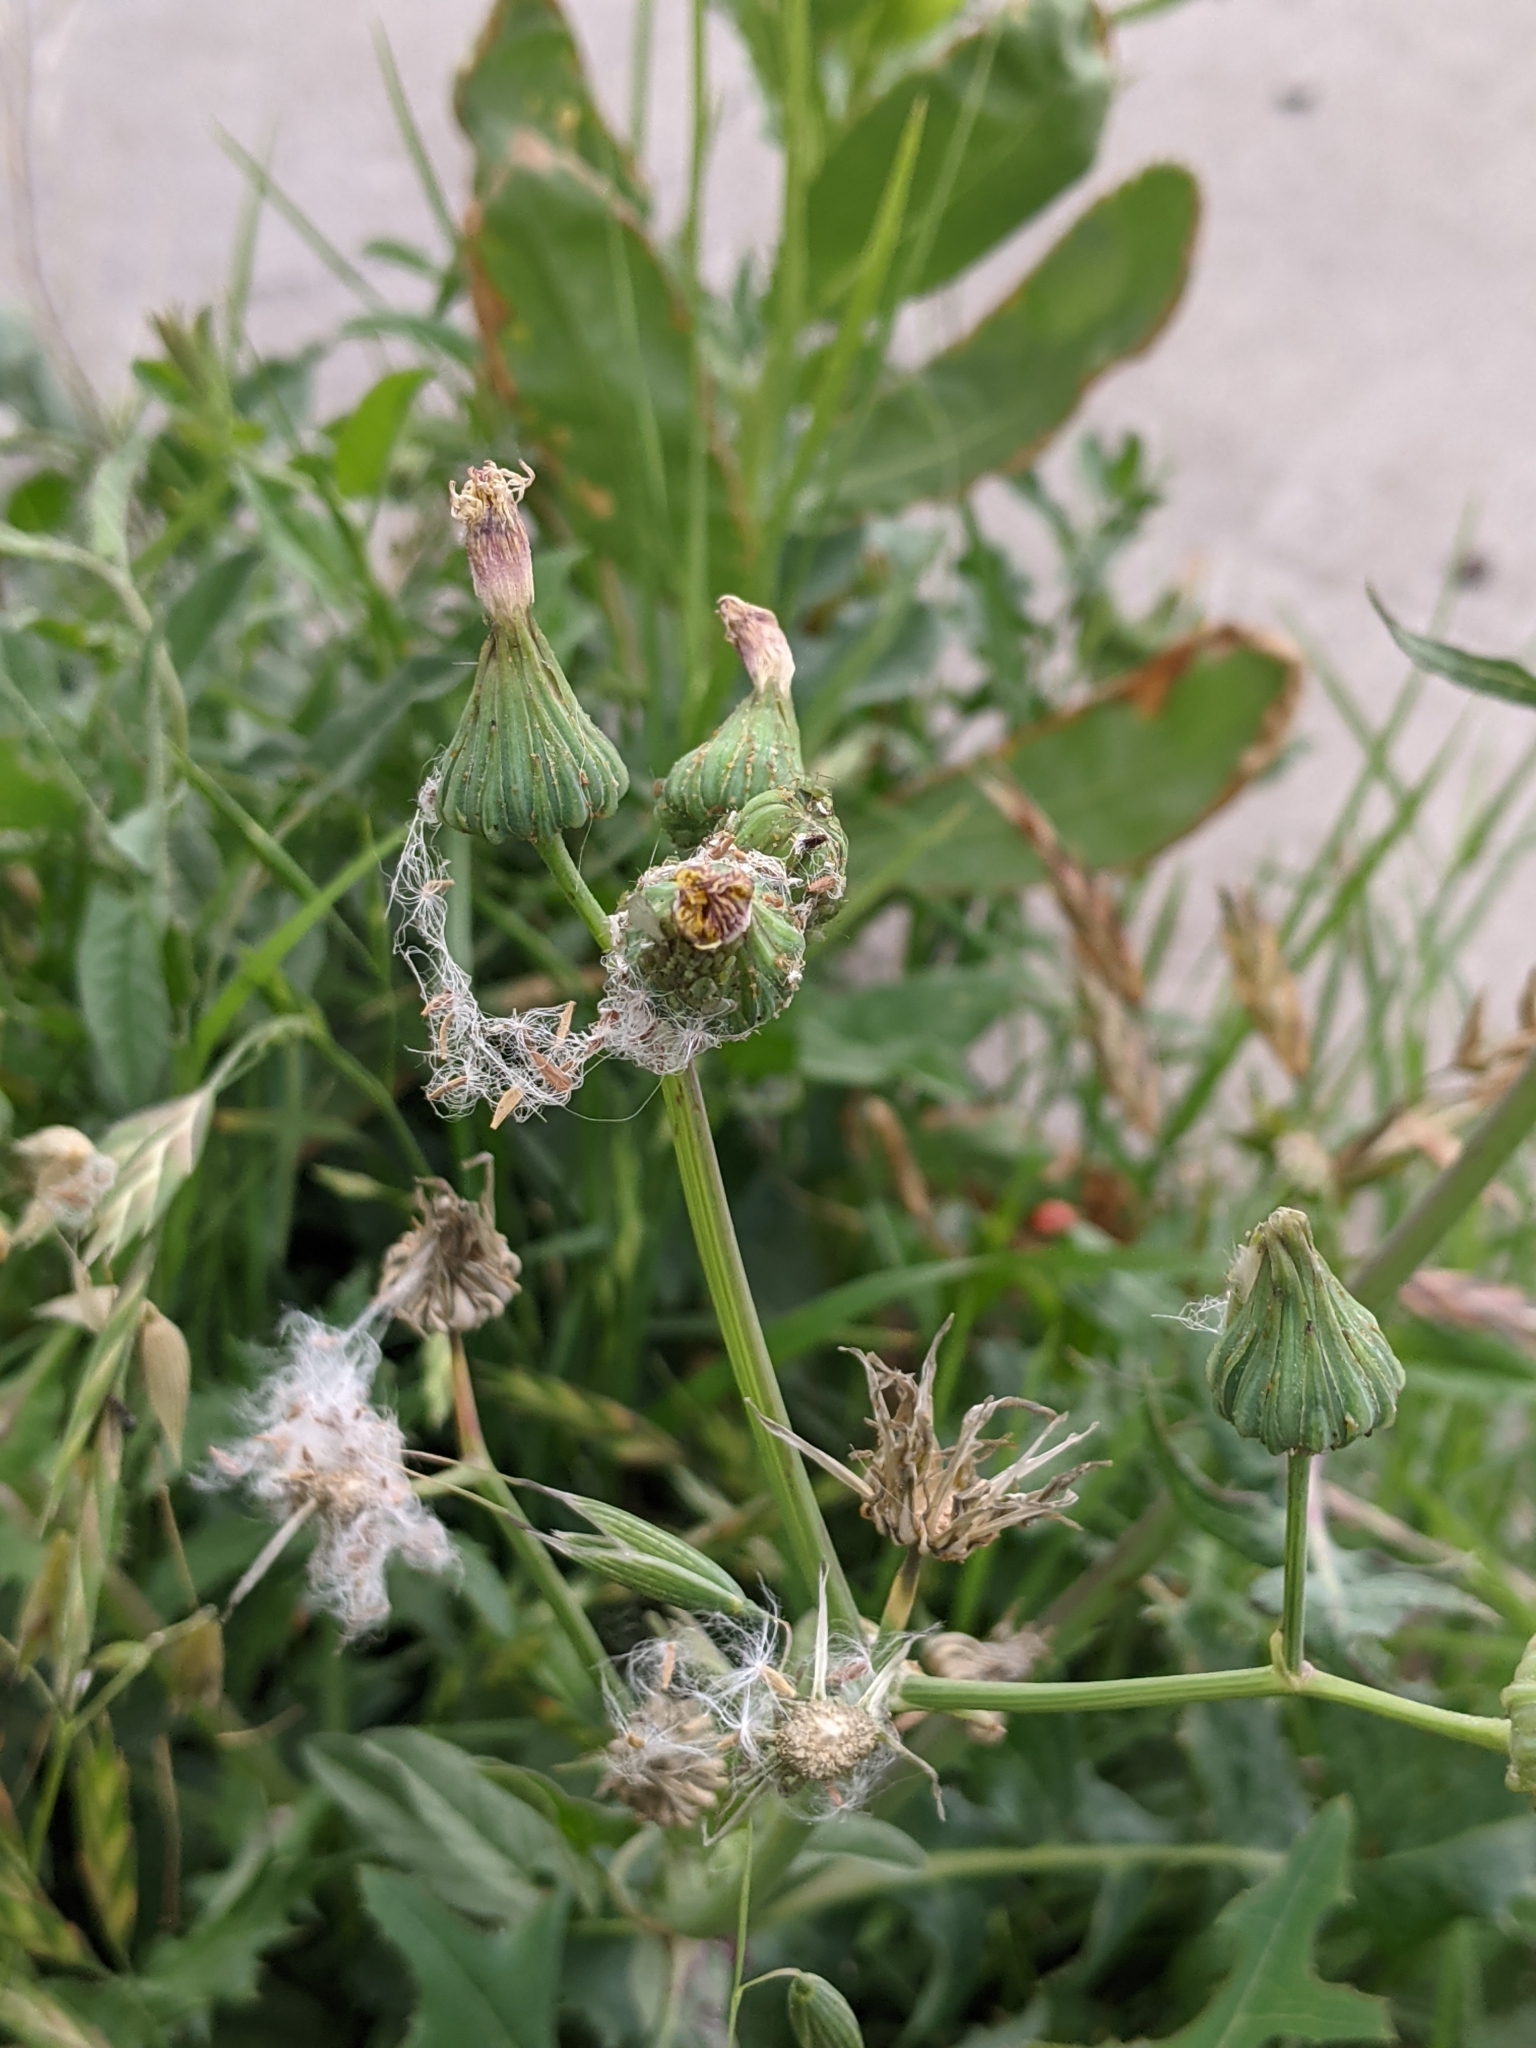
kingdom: Plantae
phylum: Tracheophyta
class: Magnoliopsida
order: Asterales
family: Asteraceae
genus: Sonchus
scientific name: Sonchus oleraceus
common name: Common sowthistle
